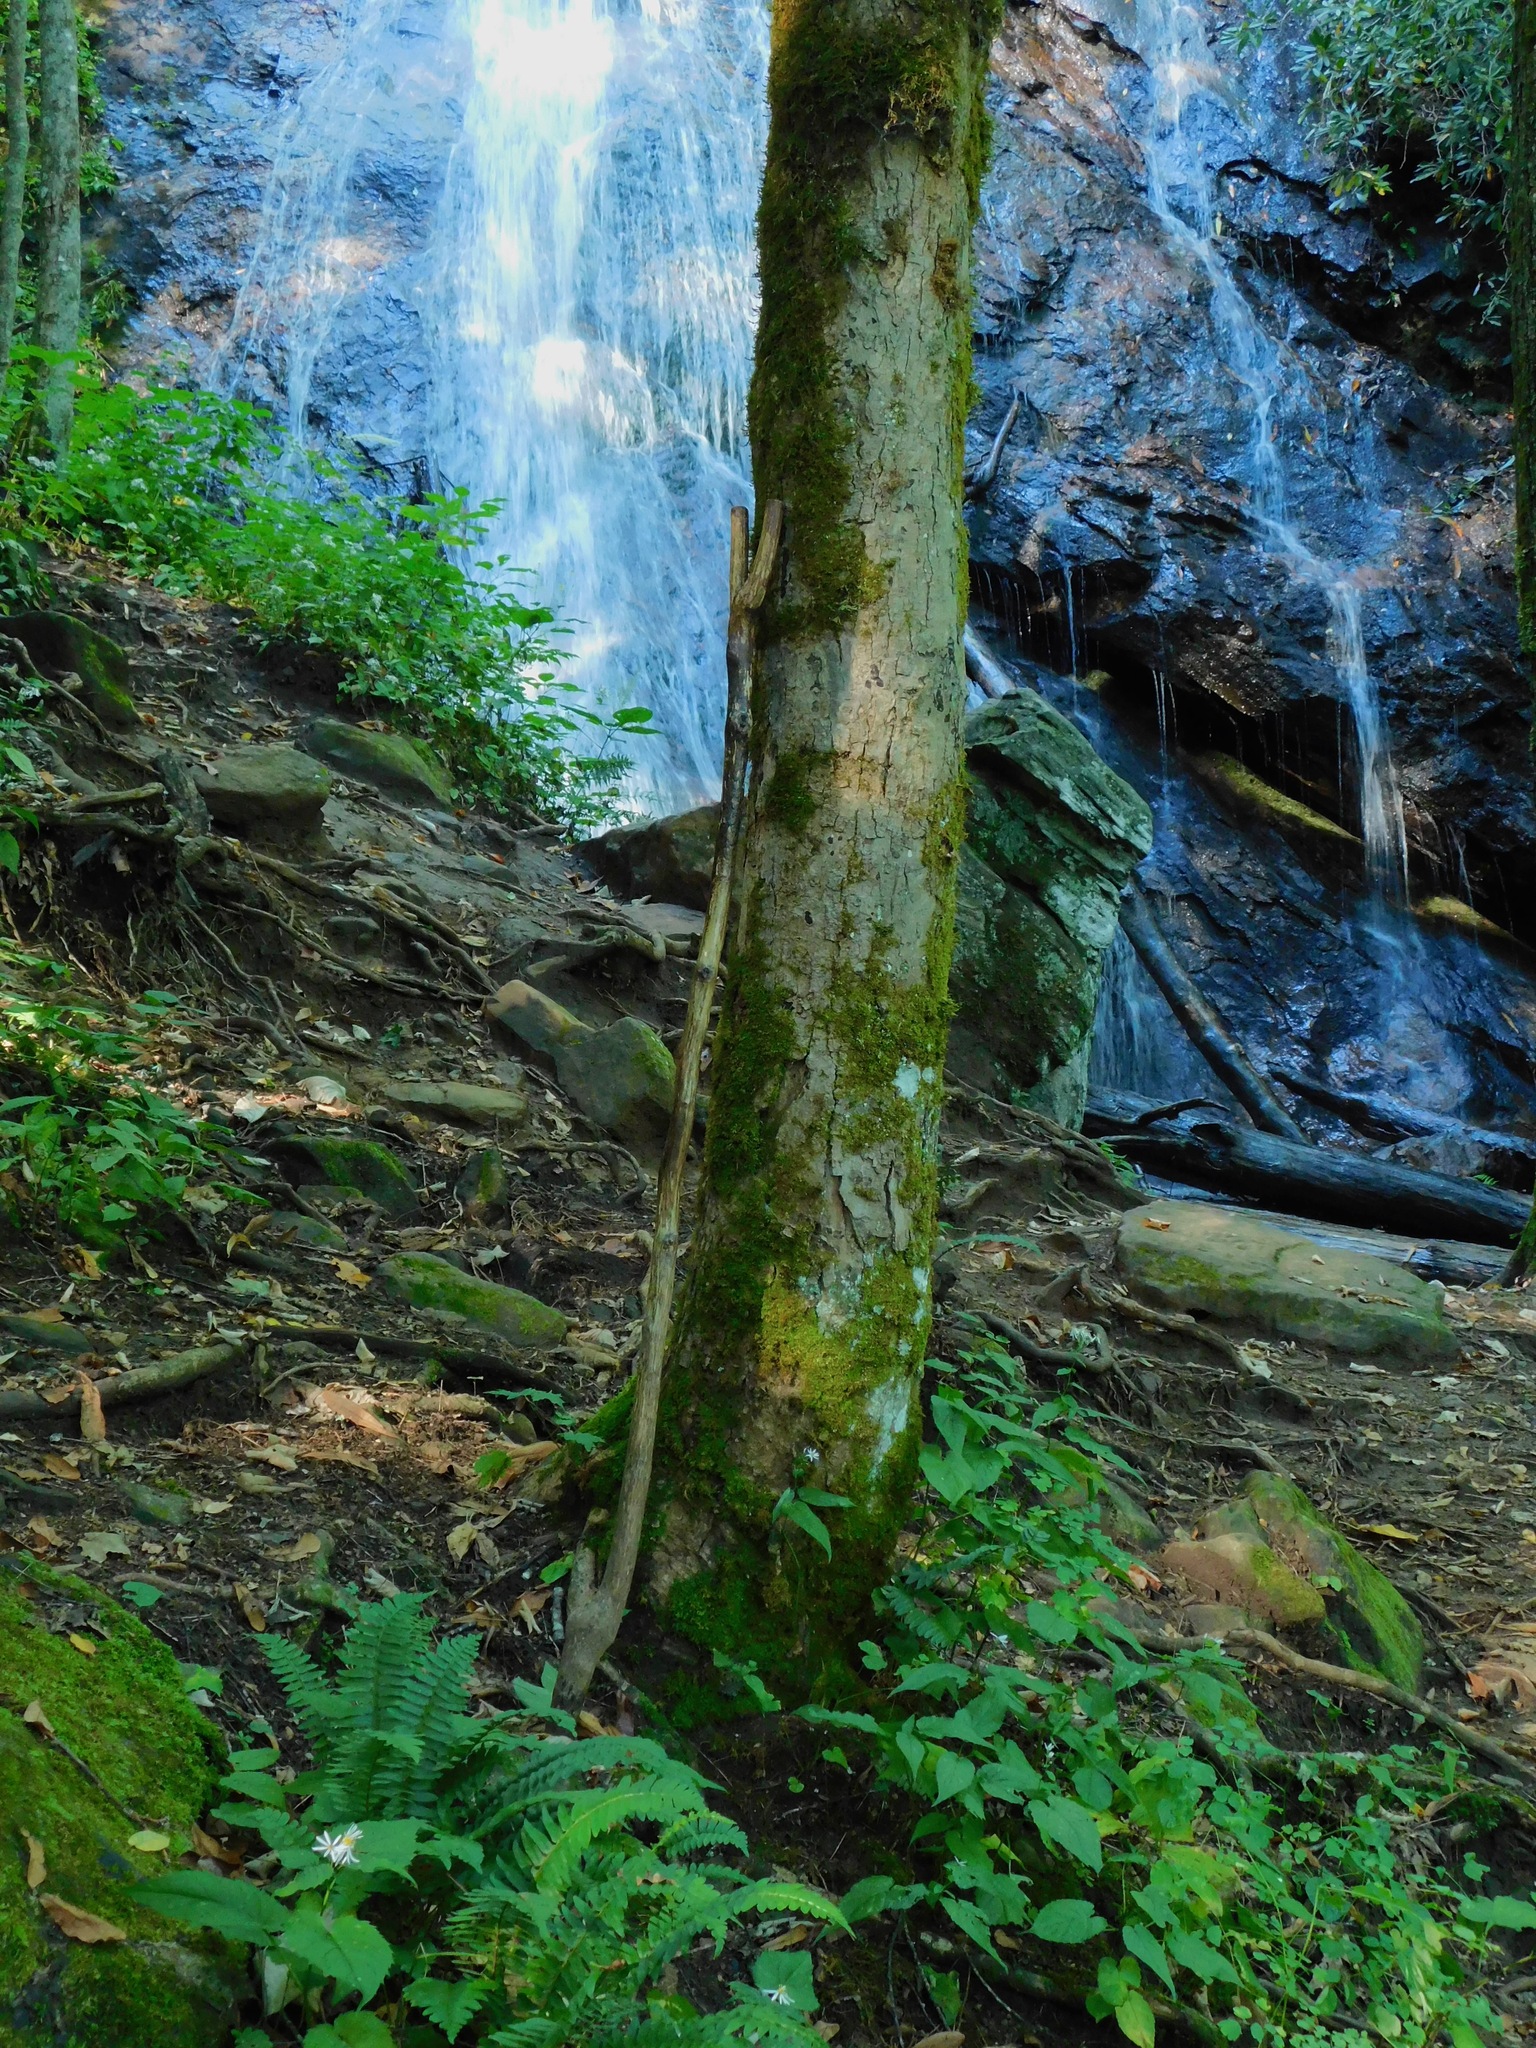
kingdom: Plantae
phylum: Tracheophyta
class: Magnoliopsida
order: Sapindales
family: Sapindaceae
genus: Acer
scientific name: Acer saccharum
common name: Sugar maple
